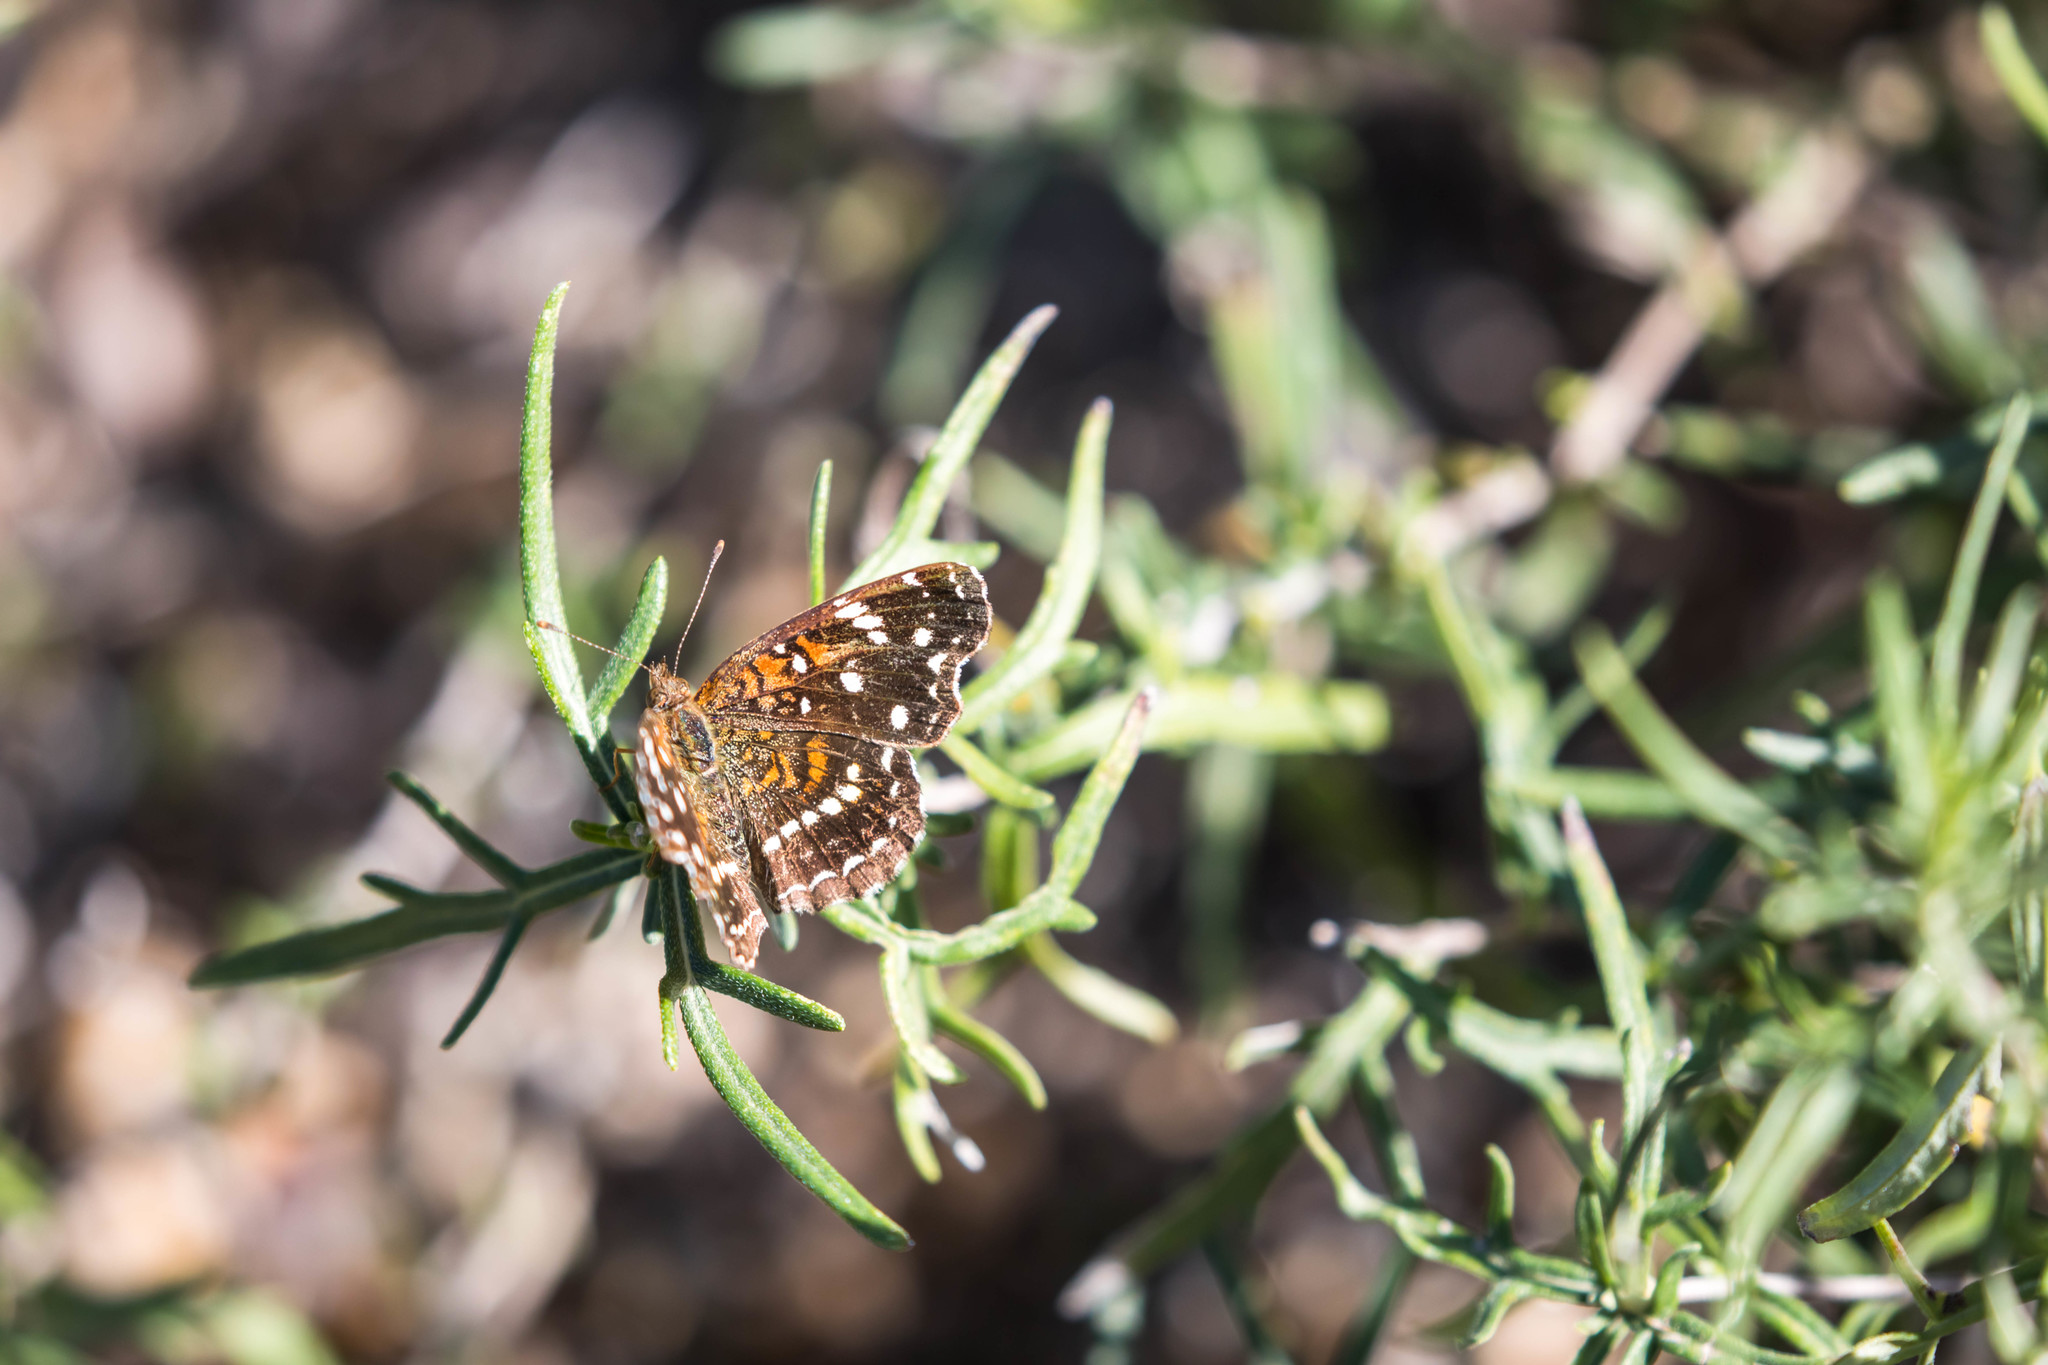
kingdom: Animalia
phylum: Arthropoda
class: Insecta
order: Lepidoptera
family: Nymphalidae
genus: Anthanassa
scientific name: Anthanassa texana
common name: Texan crescent
